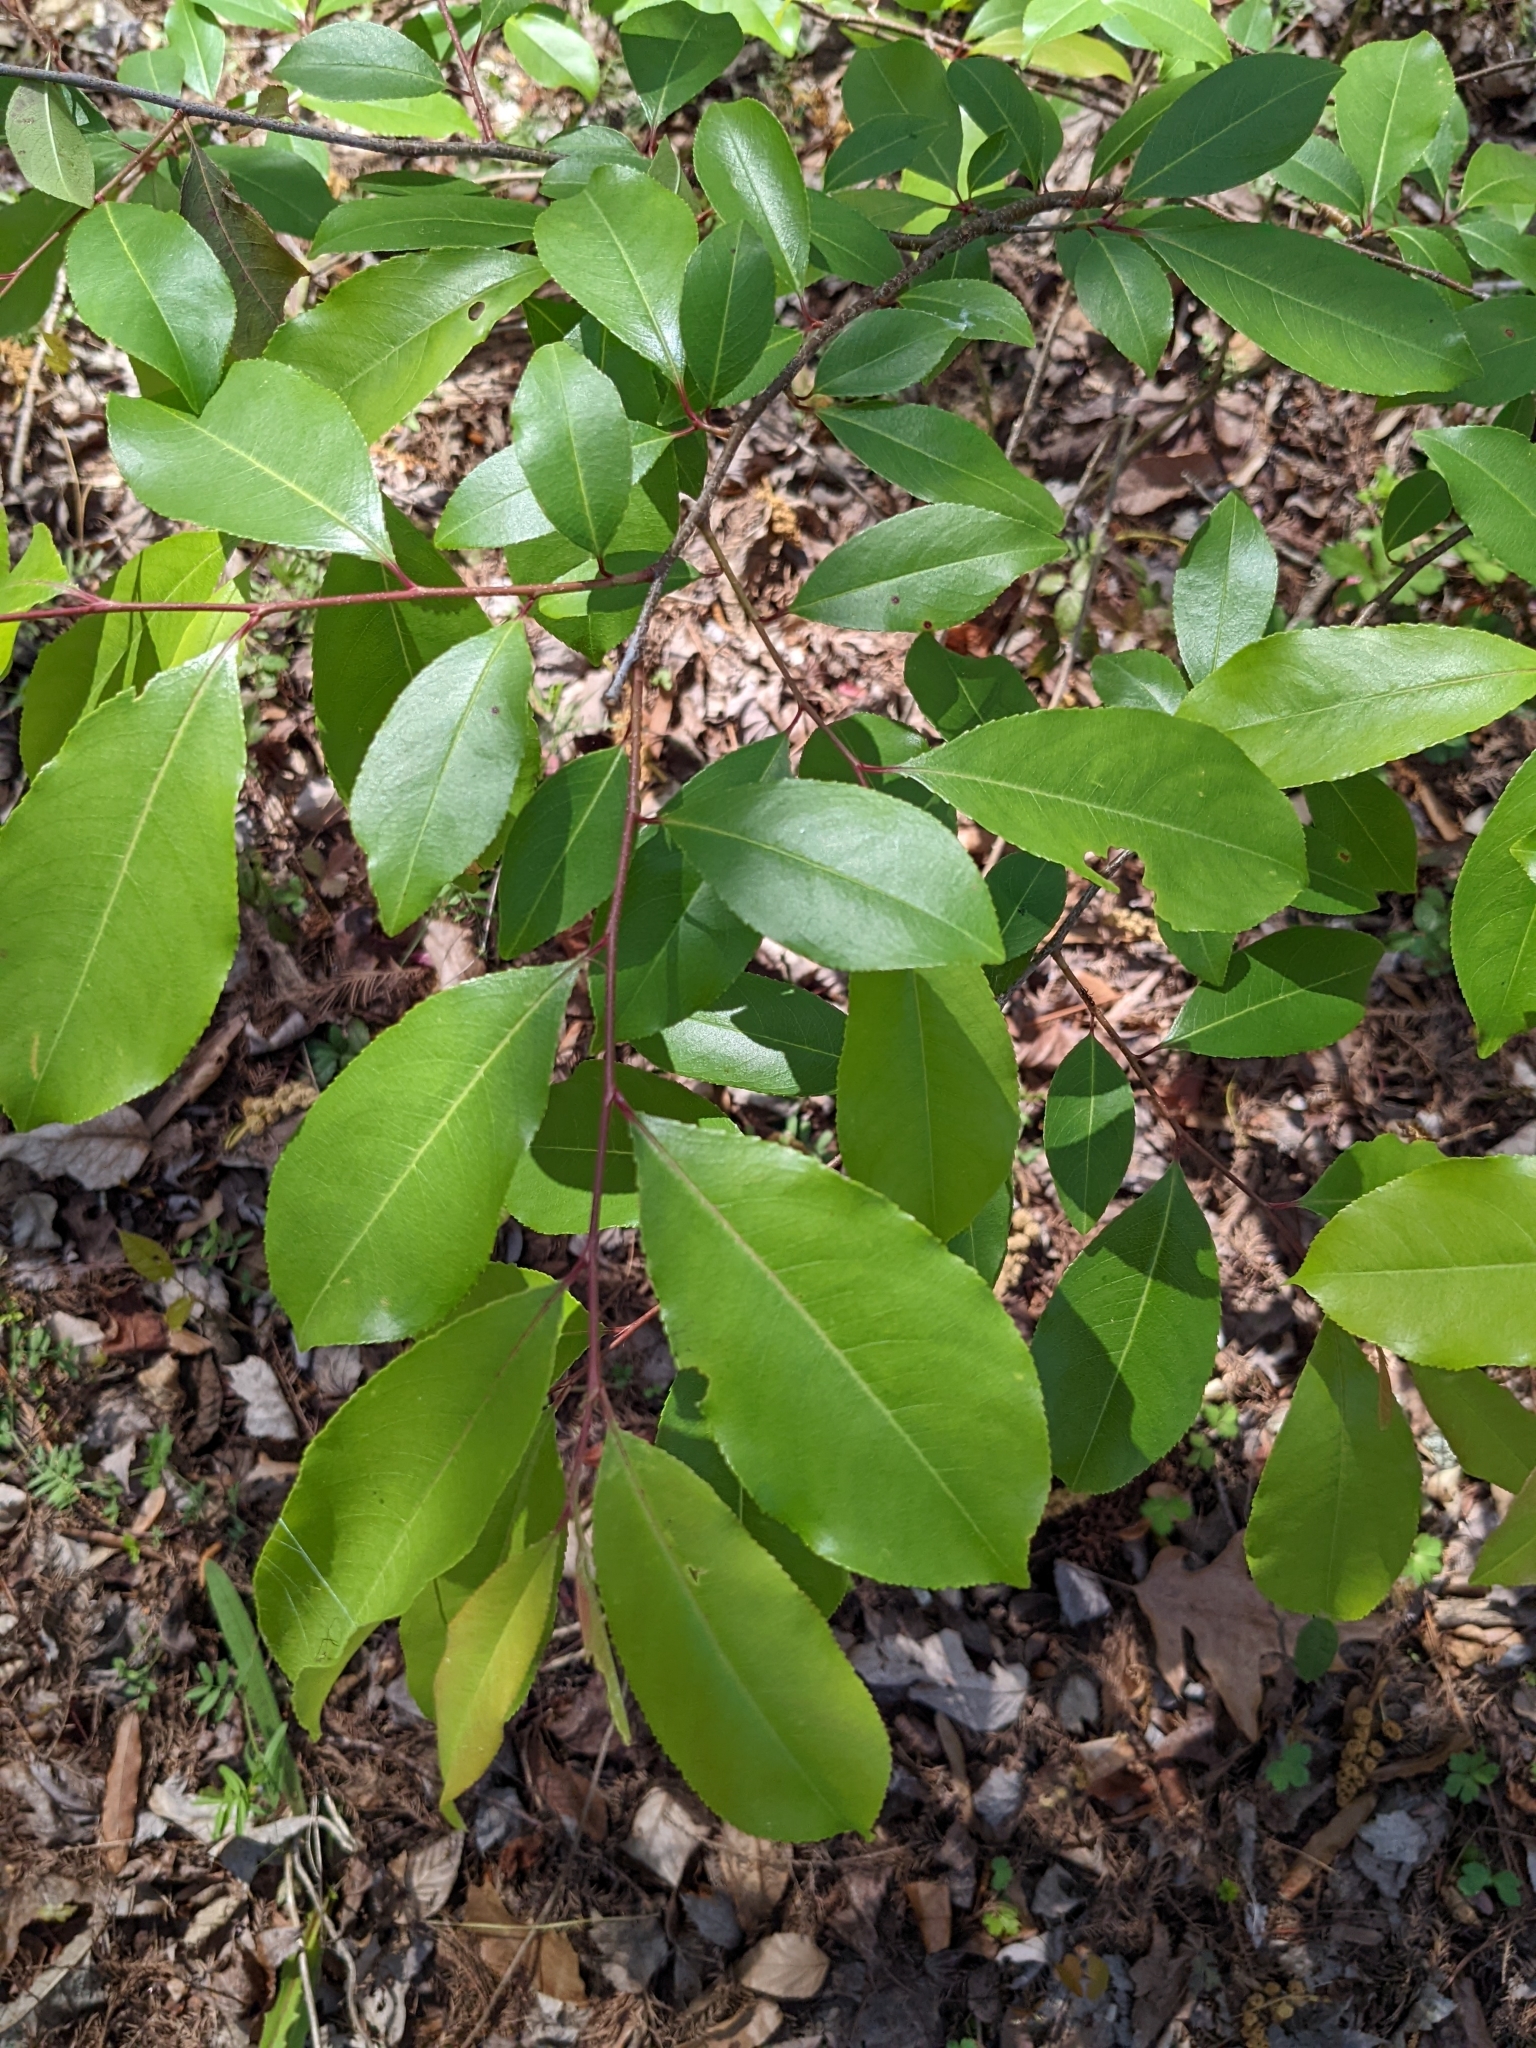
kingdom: Plantae
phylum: Tracheophyta
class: Magnoliopsida
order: Rosales
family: Rosaceae
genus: Prunus
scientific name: Prunus serotina
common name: Black cherry
